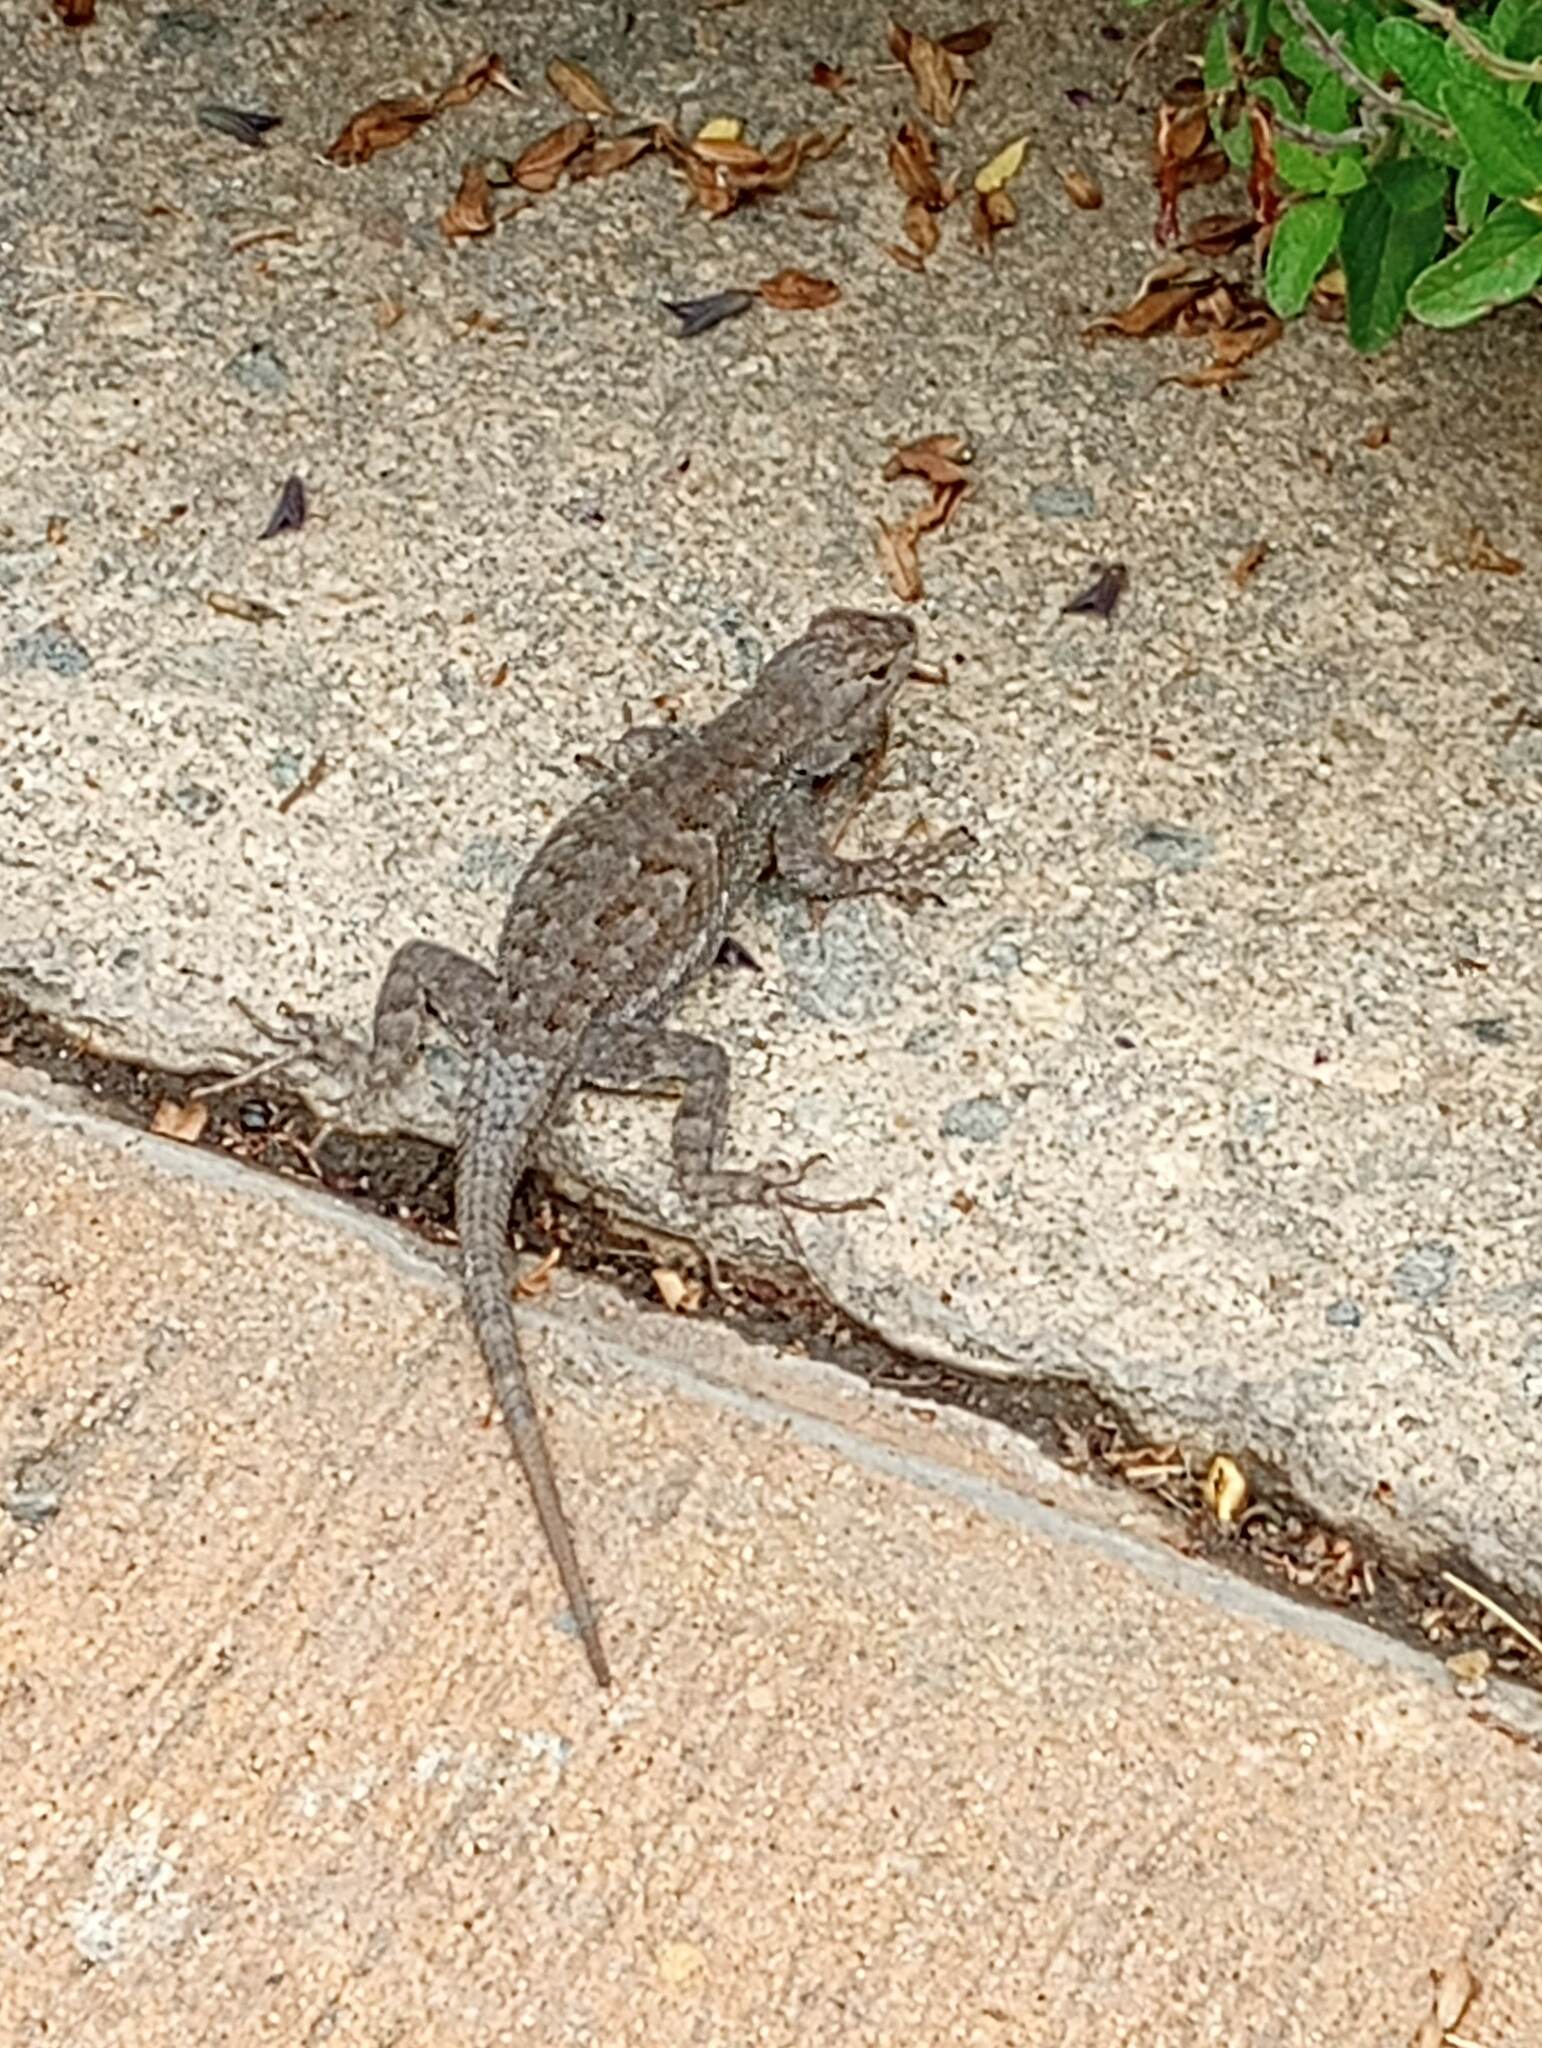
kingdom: Animalia
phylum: Chordata
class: Squamata
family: Phrynosomatidae
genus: Sceloporus
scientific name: Sceloporus occidentalis
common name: Western fence lizard
